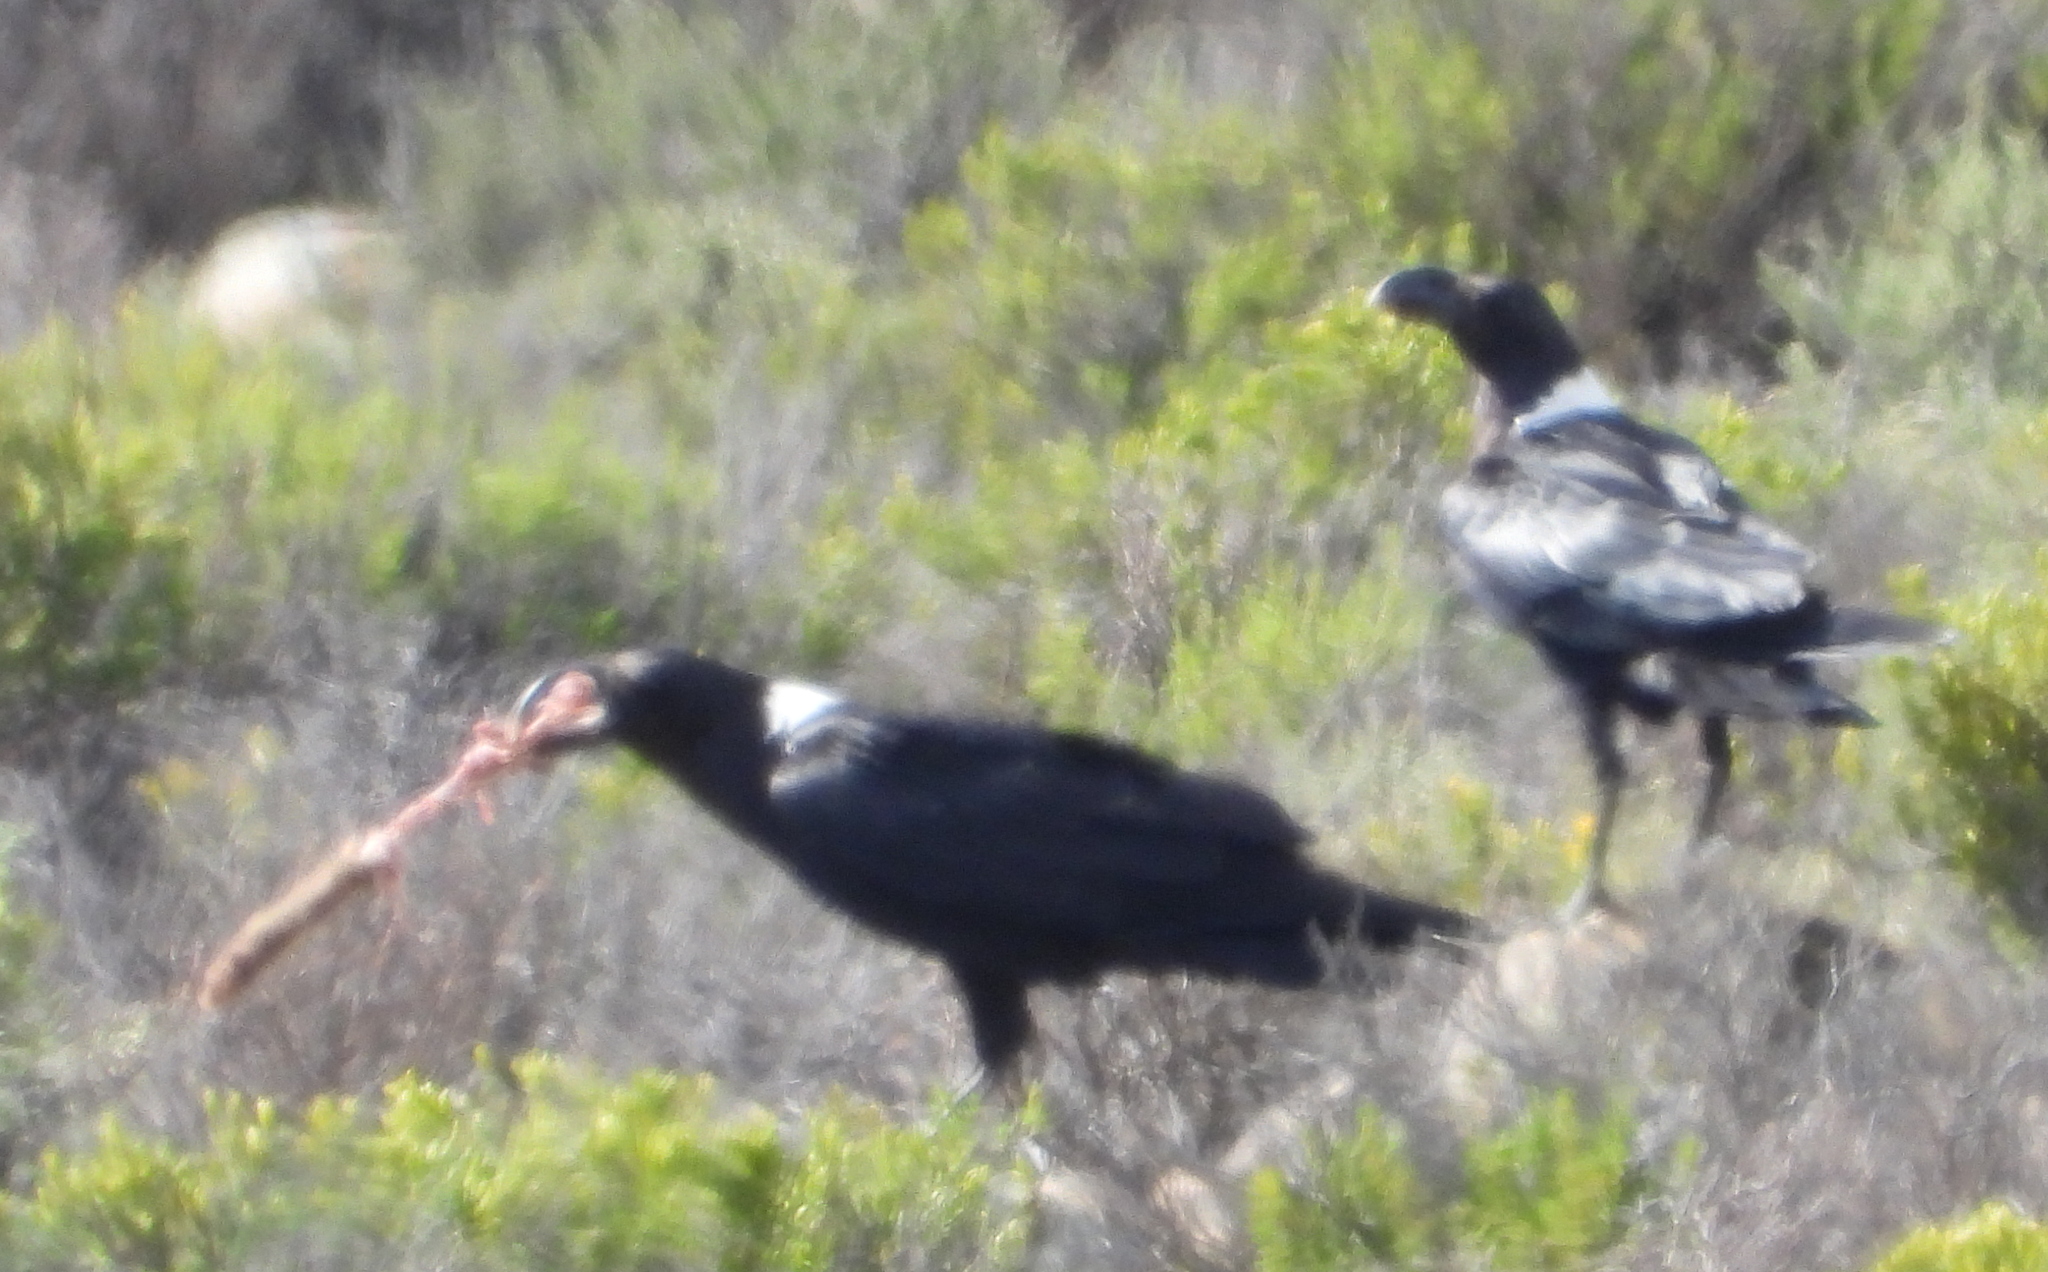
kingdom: Animalia
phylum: Chordata
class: Aves
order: Passeriformes
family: Corvidae
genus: Corvus
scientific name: Corvus albicollis
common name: White-necked raven
